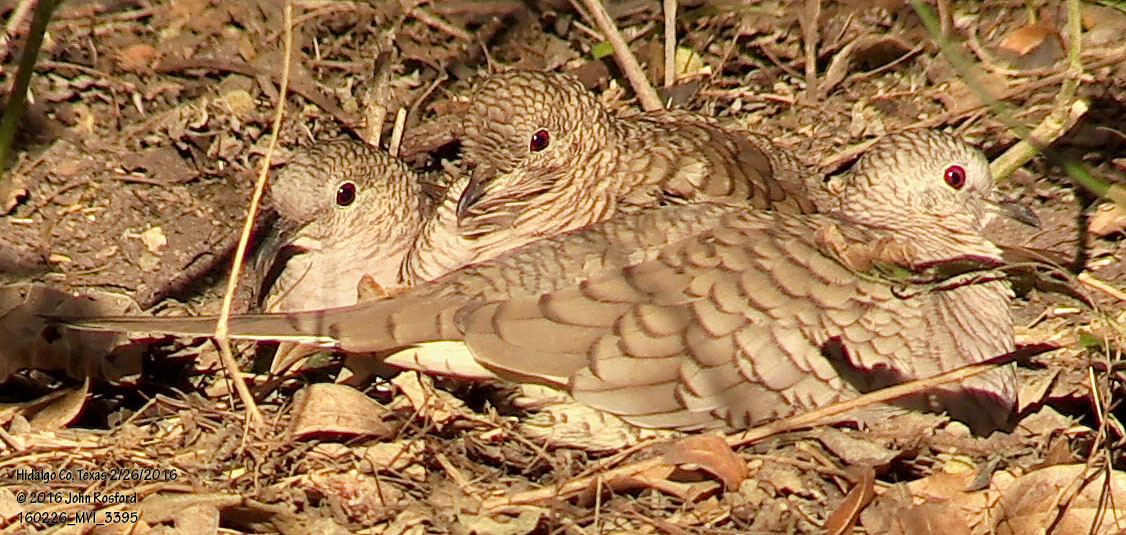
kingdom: Animalia
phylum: Chordata
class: Aves
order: Columbiformes
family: Columbidae
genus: Columbina
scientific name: Columbina inca
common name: Inca dove
